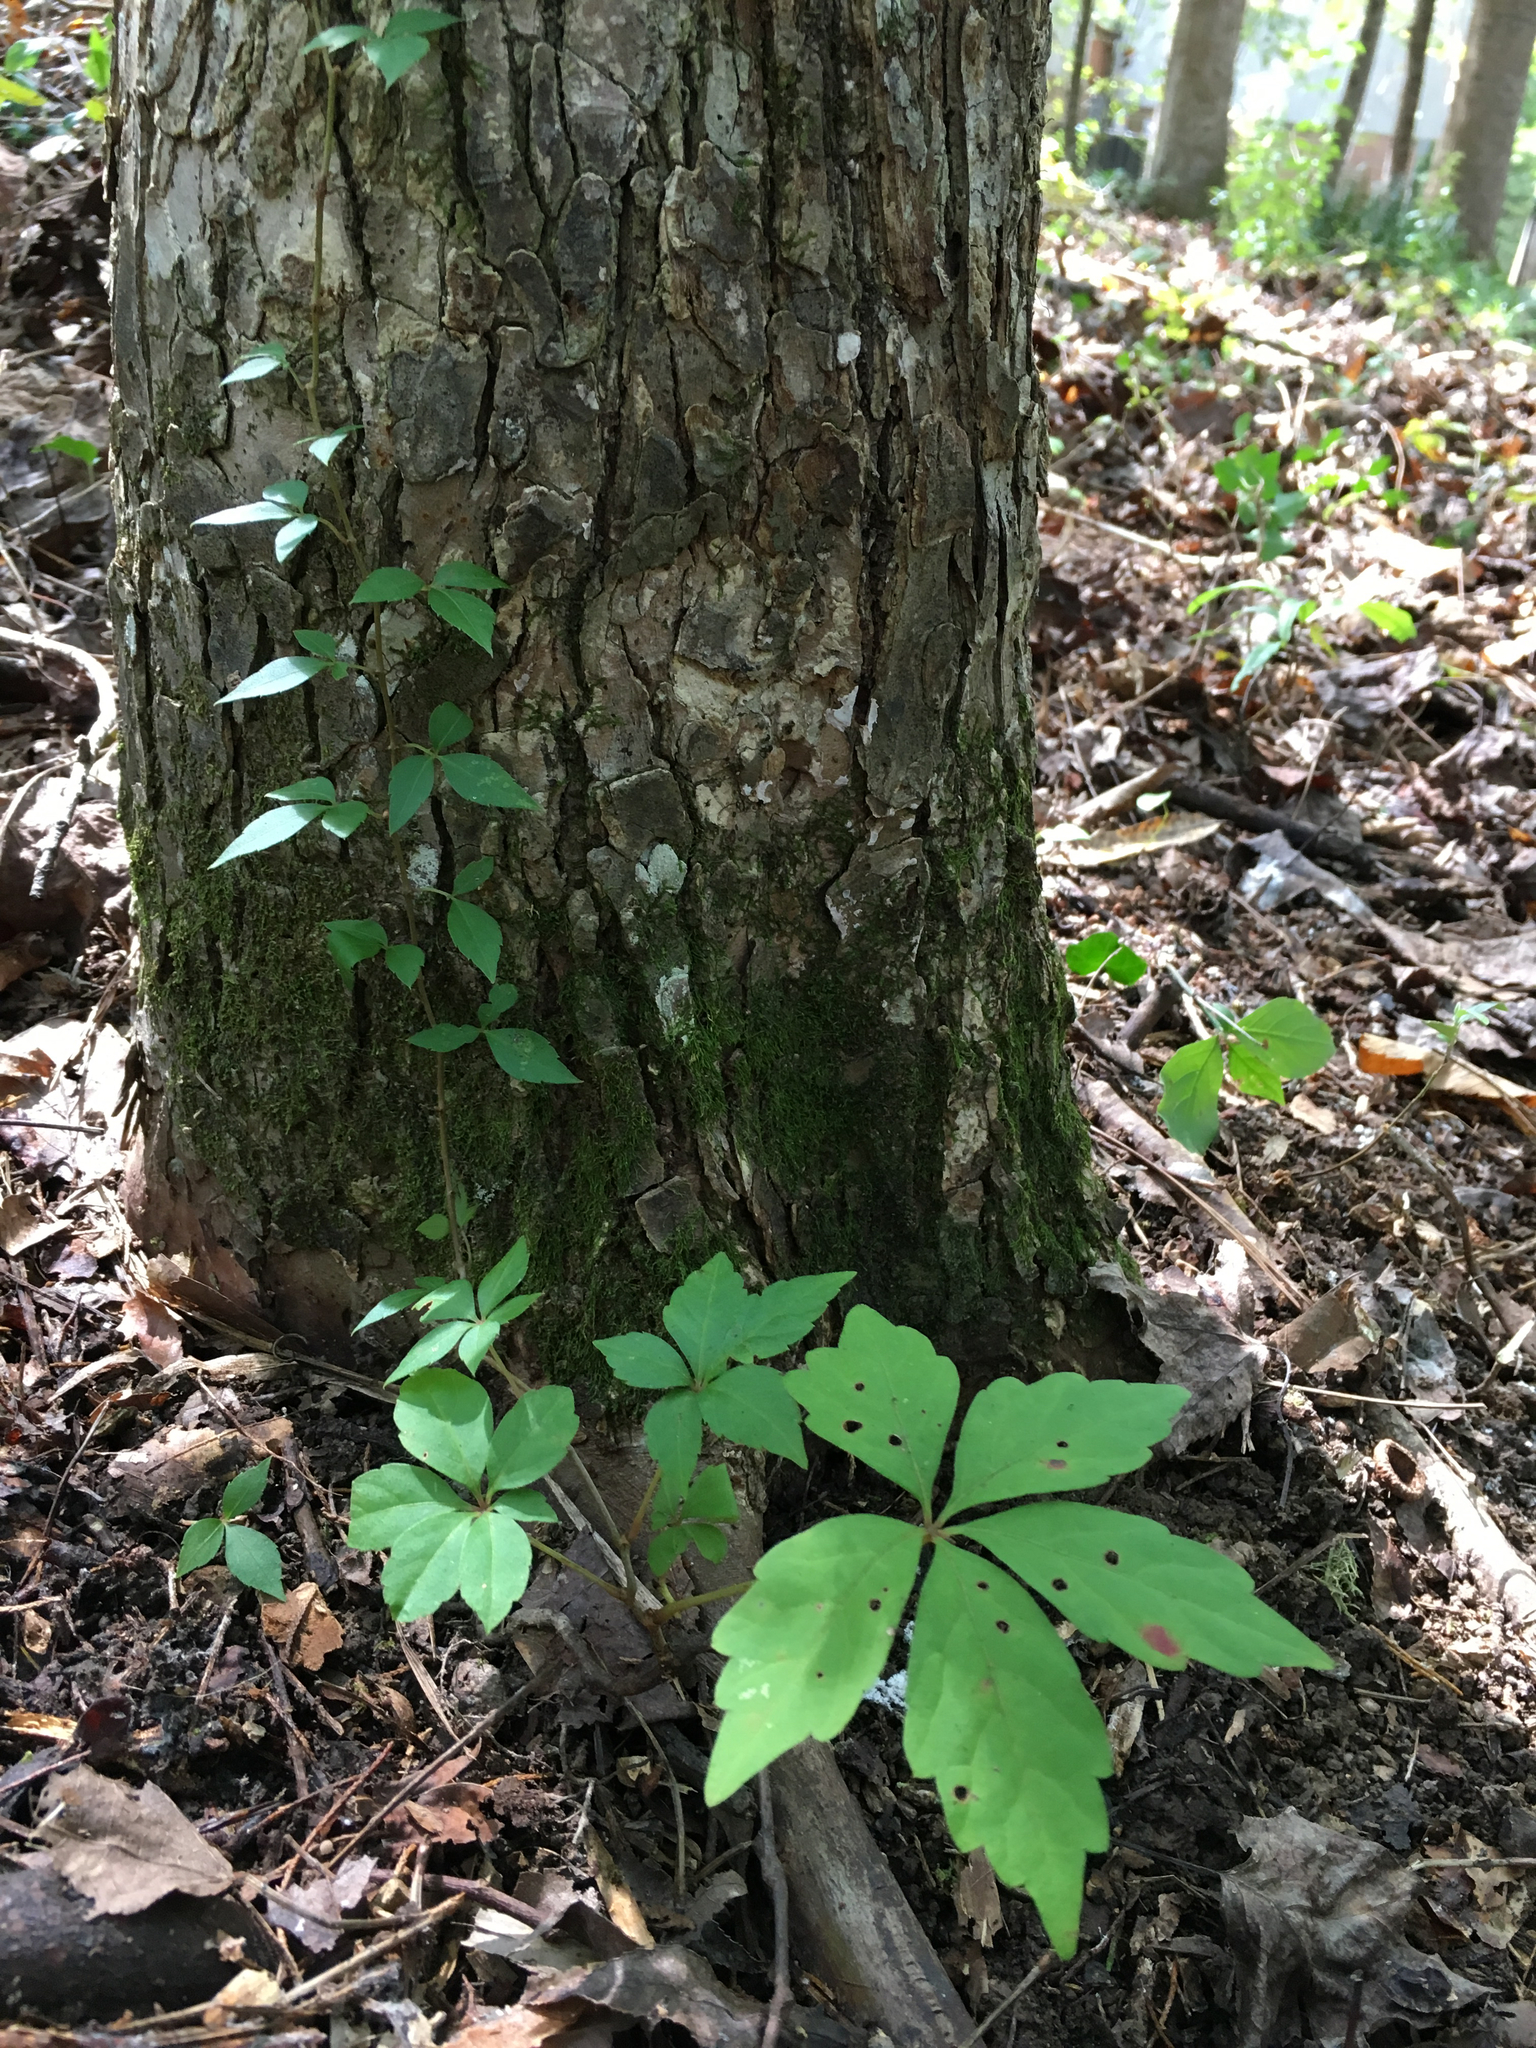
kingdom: Plantae
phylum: Tracheophyta
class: Magnoliopsida
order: Vitales
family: Vitaceae
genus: Parthenocissus
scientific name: Parthenocissus quinquefolia
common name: Virginia-creeper
